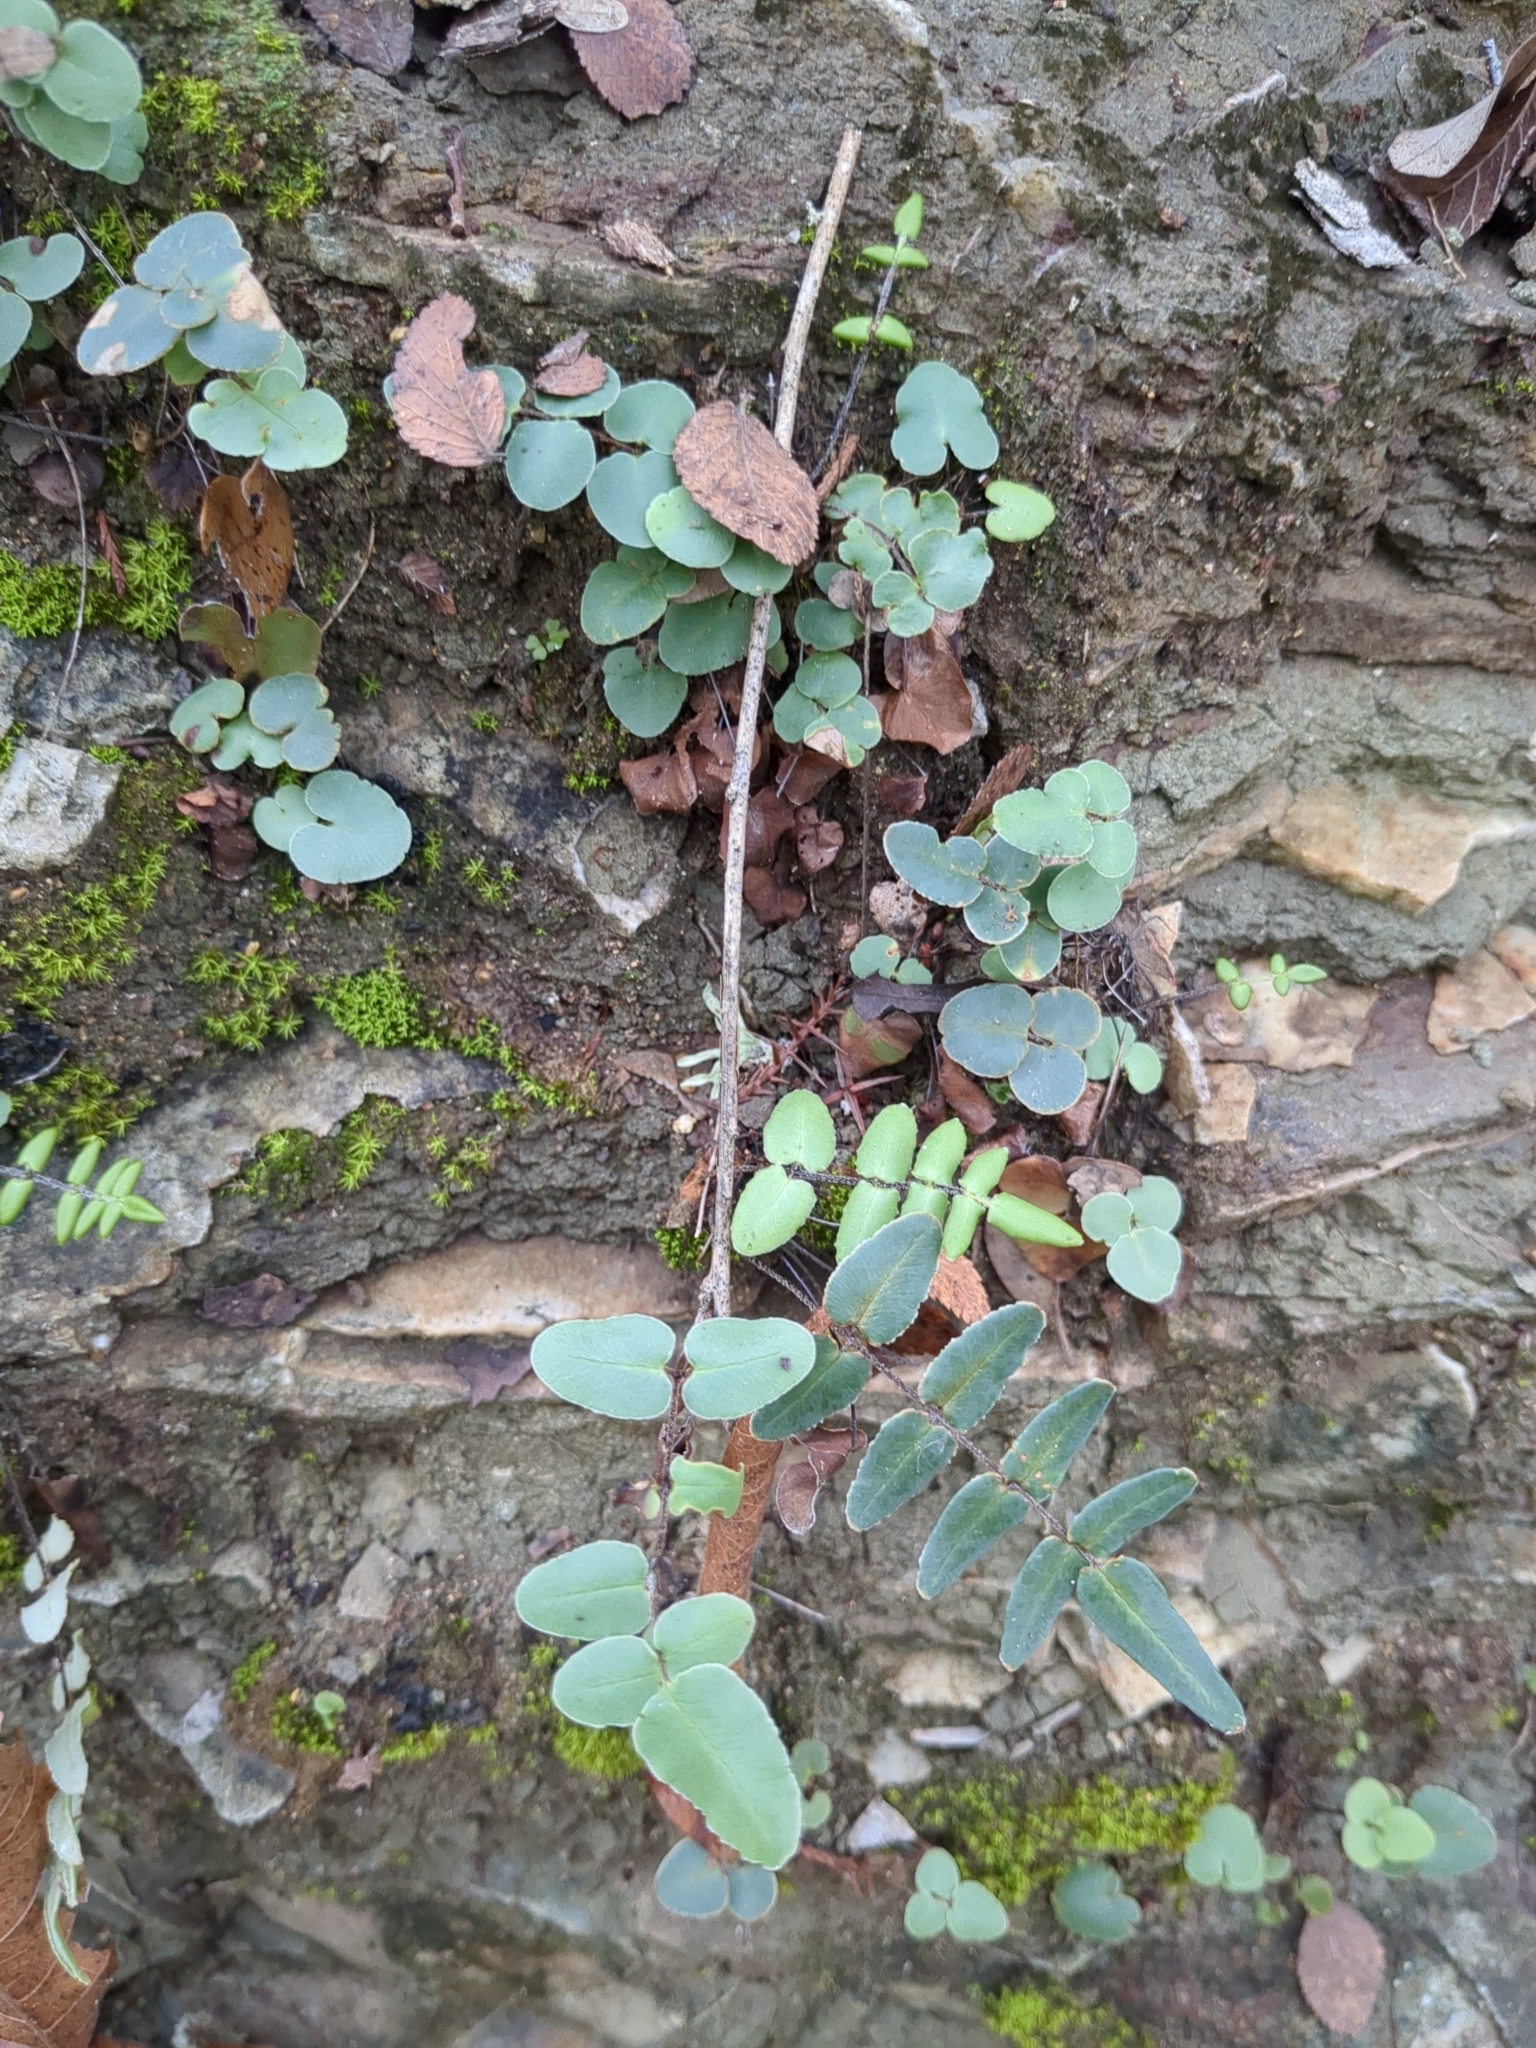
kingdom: Plantae
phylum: Tracheophyta
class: Polypodiopsida
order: Polypodiales
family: Pteridaceae
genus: Pellaea
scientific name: Pellaea atropurpurea
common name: Hairy cliffbrake
